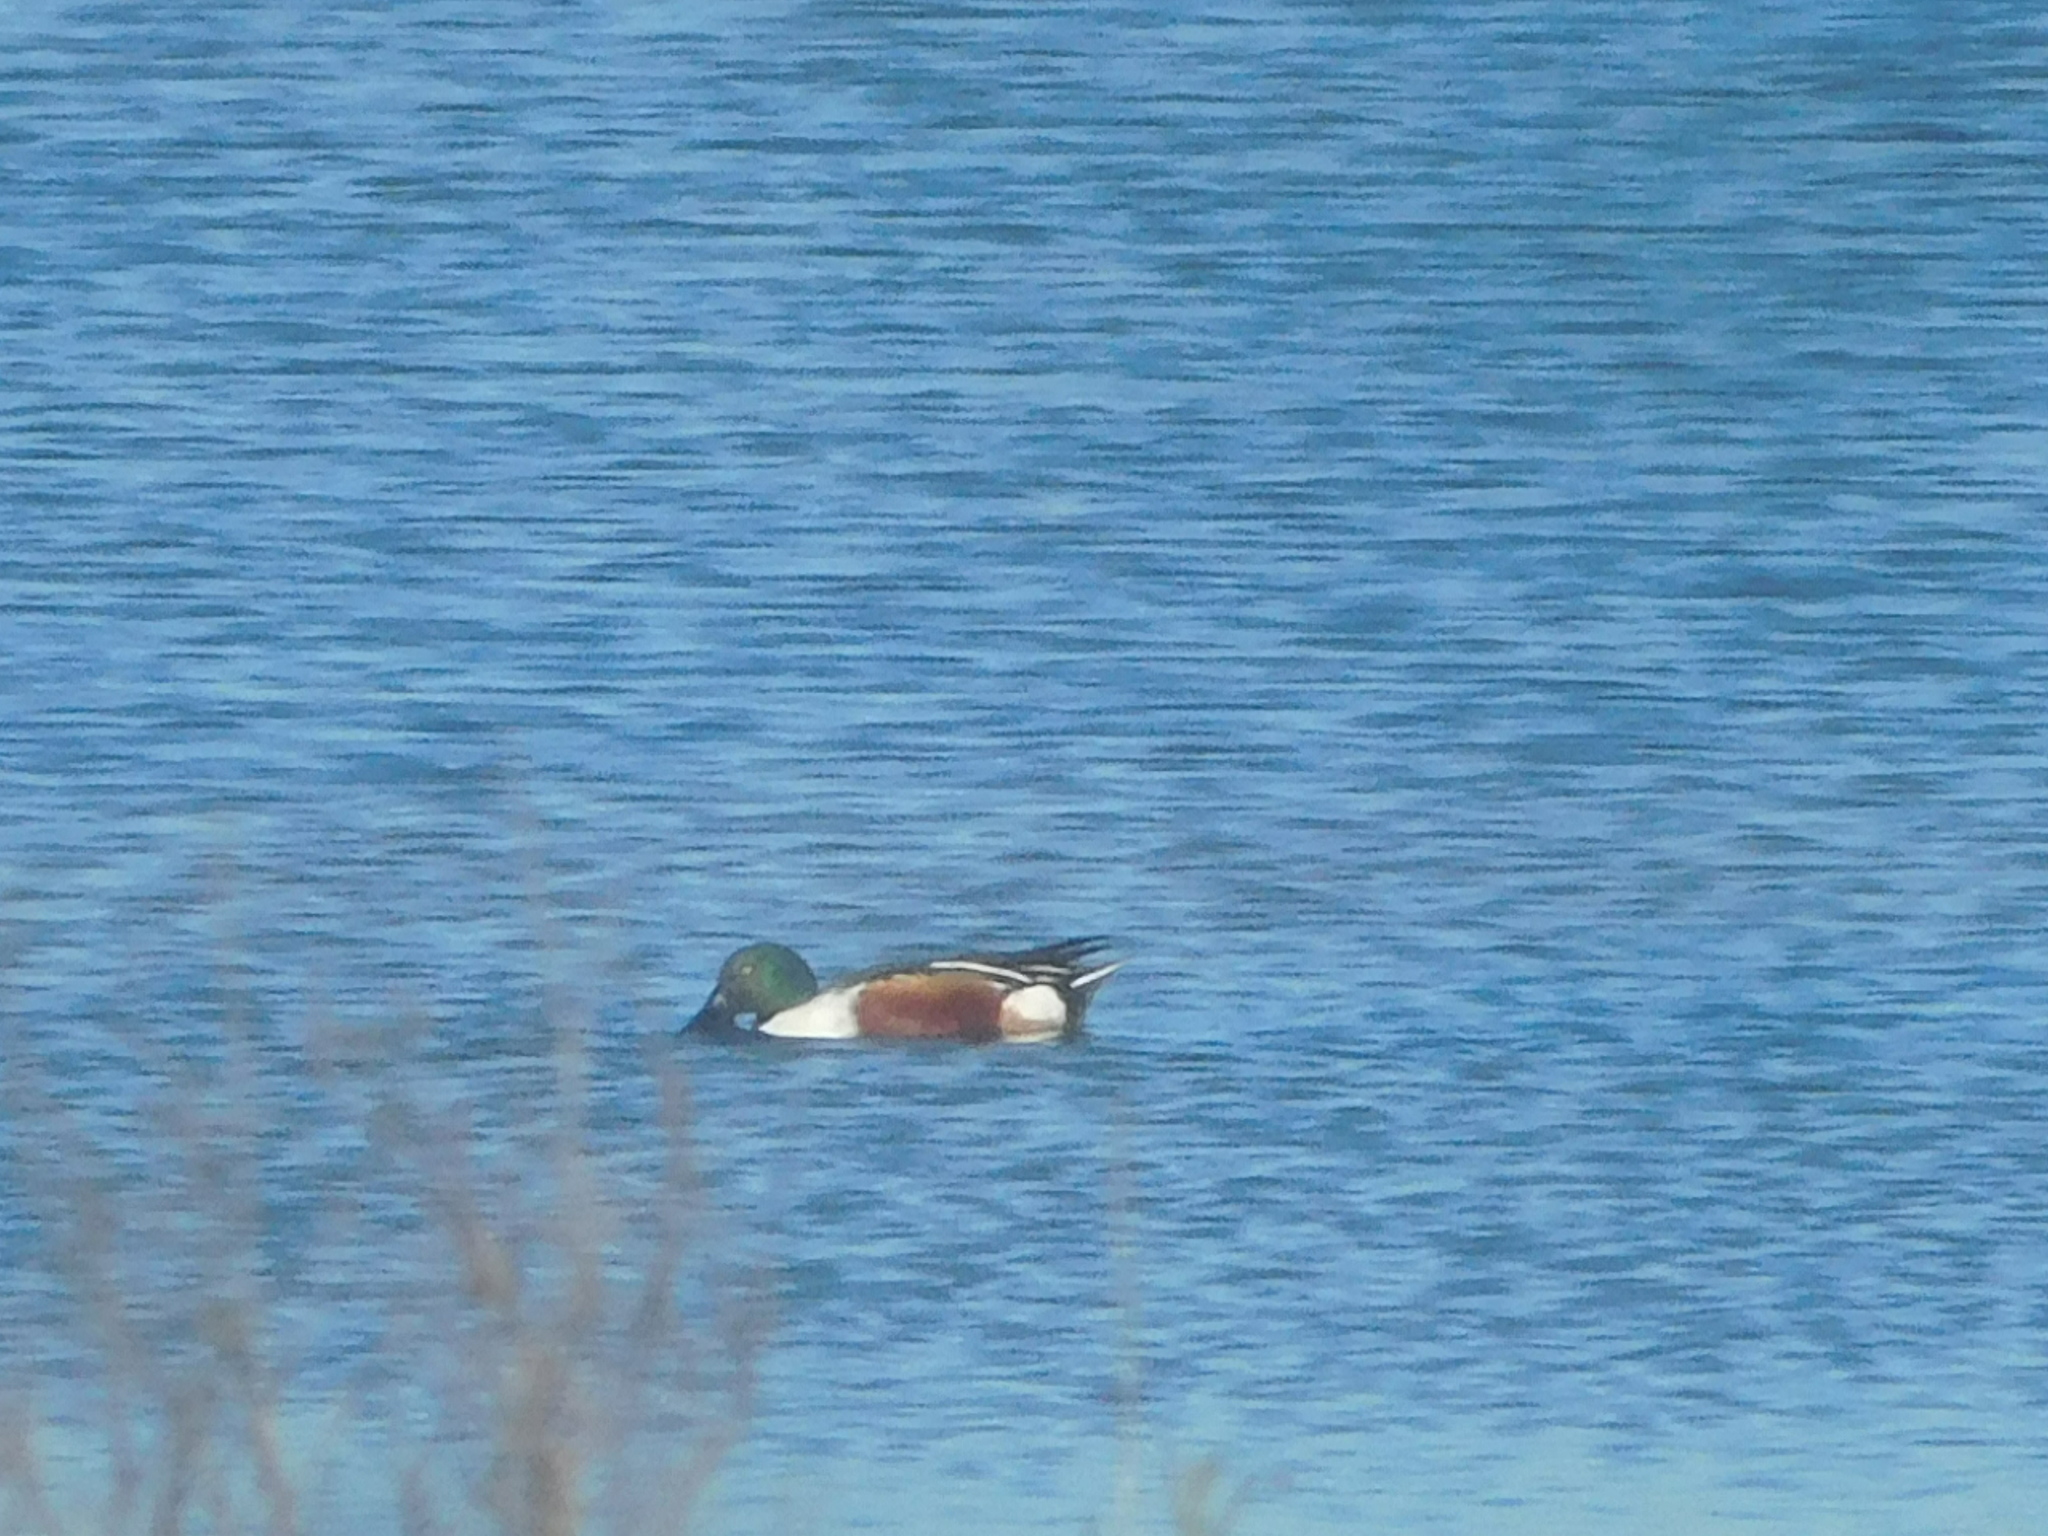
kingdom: Animalia
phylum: Chordata
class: Aves
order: Anseriformes
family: Anatidae
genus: Spatula
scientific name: Spatula clypeata
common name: Northern shoveler
